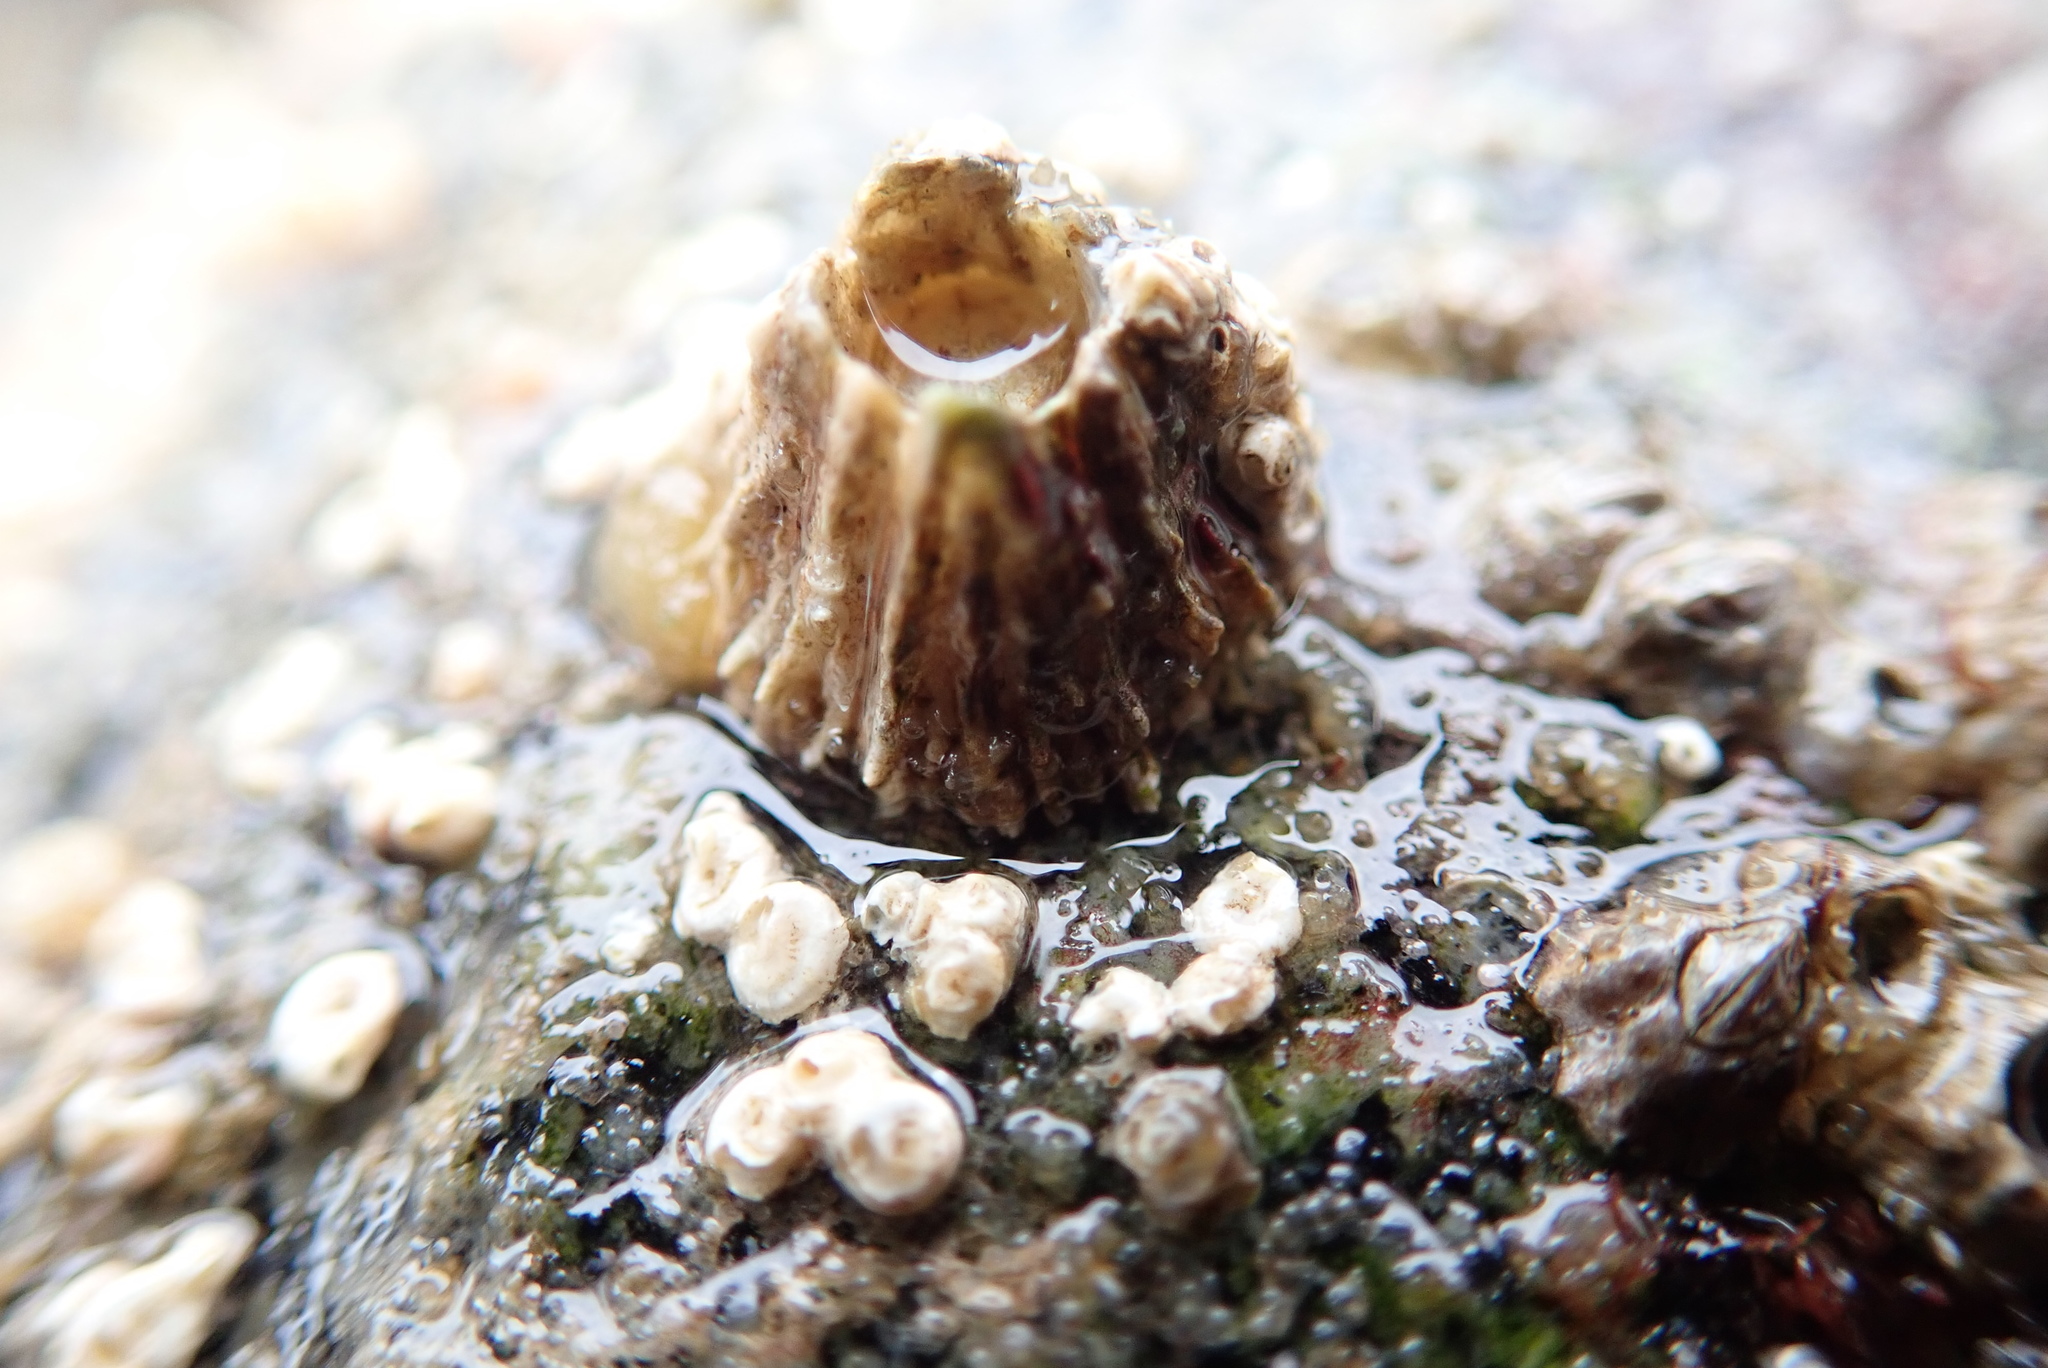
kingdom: Animalia
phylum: Arthropoda
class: Maxillopoda
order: Sessilia
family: Archaeobalanidae
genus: Semibalanus
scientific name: Semibalanus cariosus
